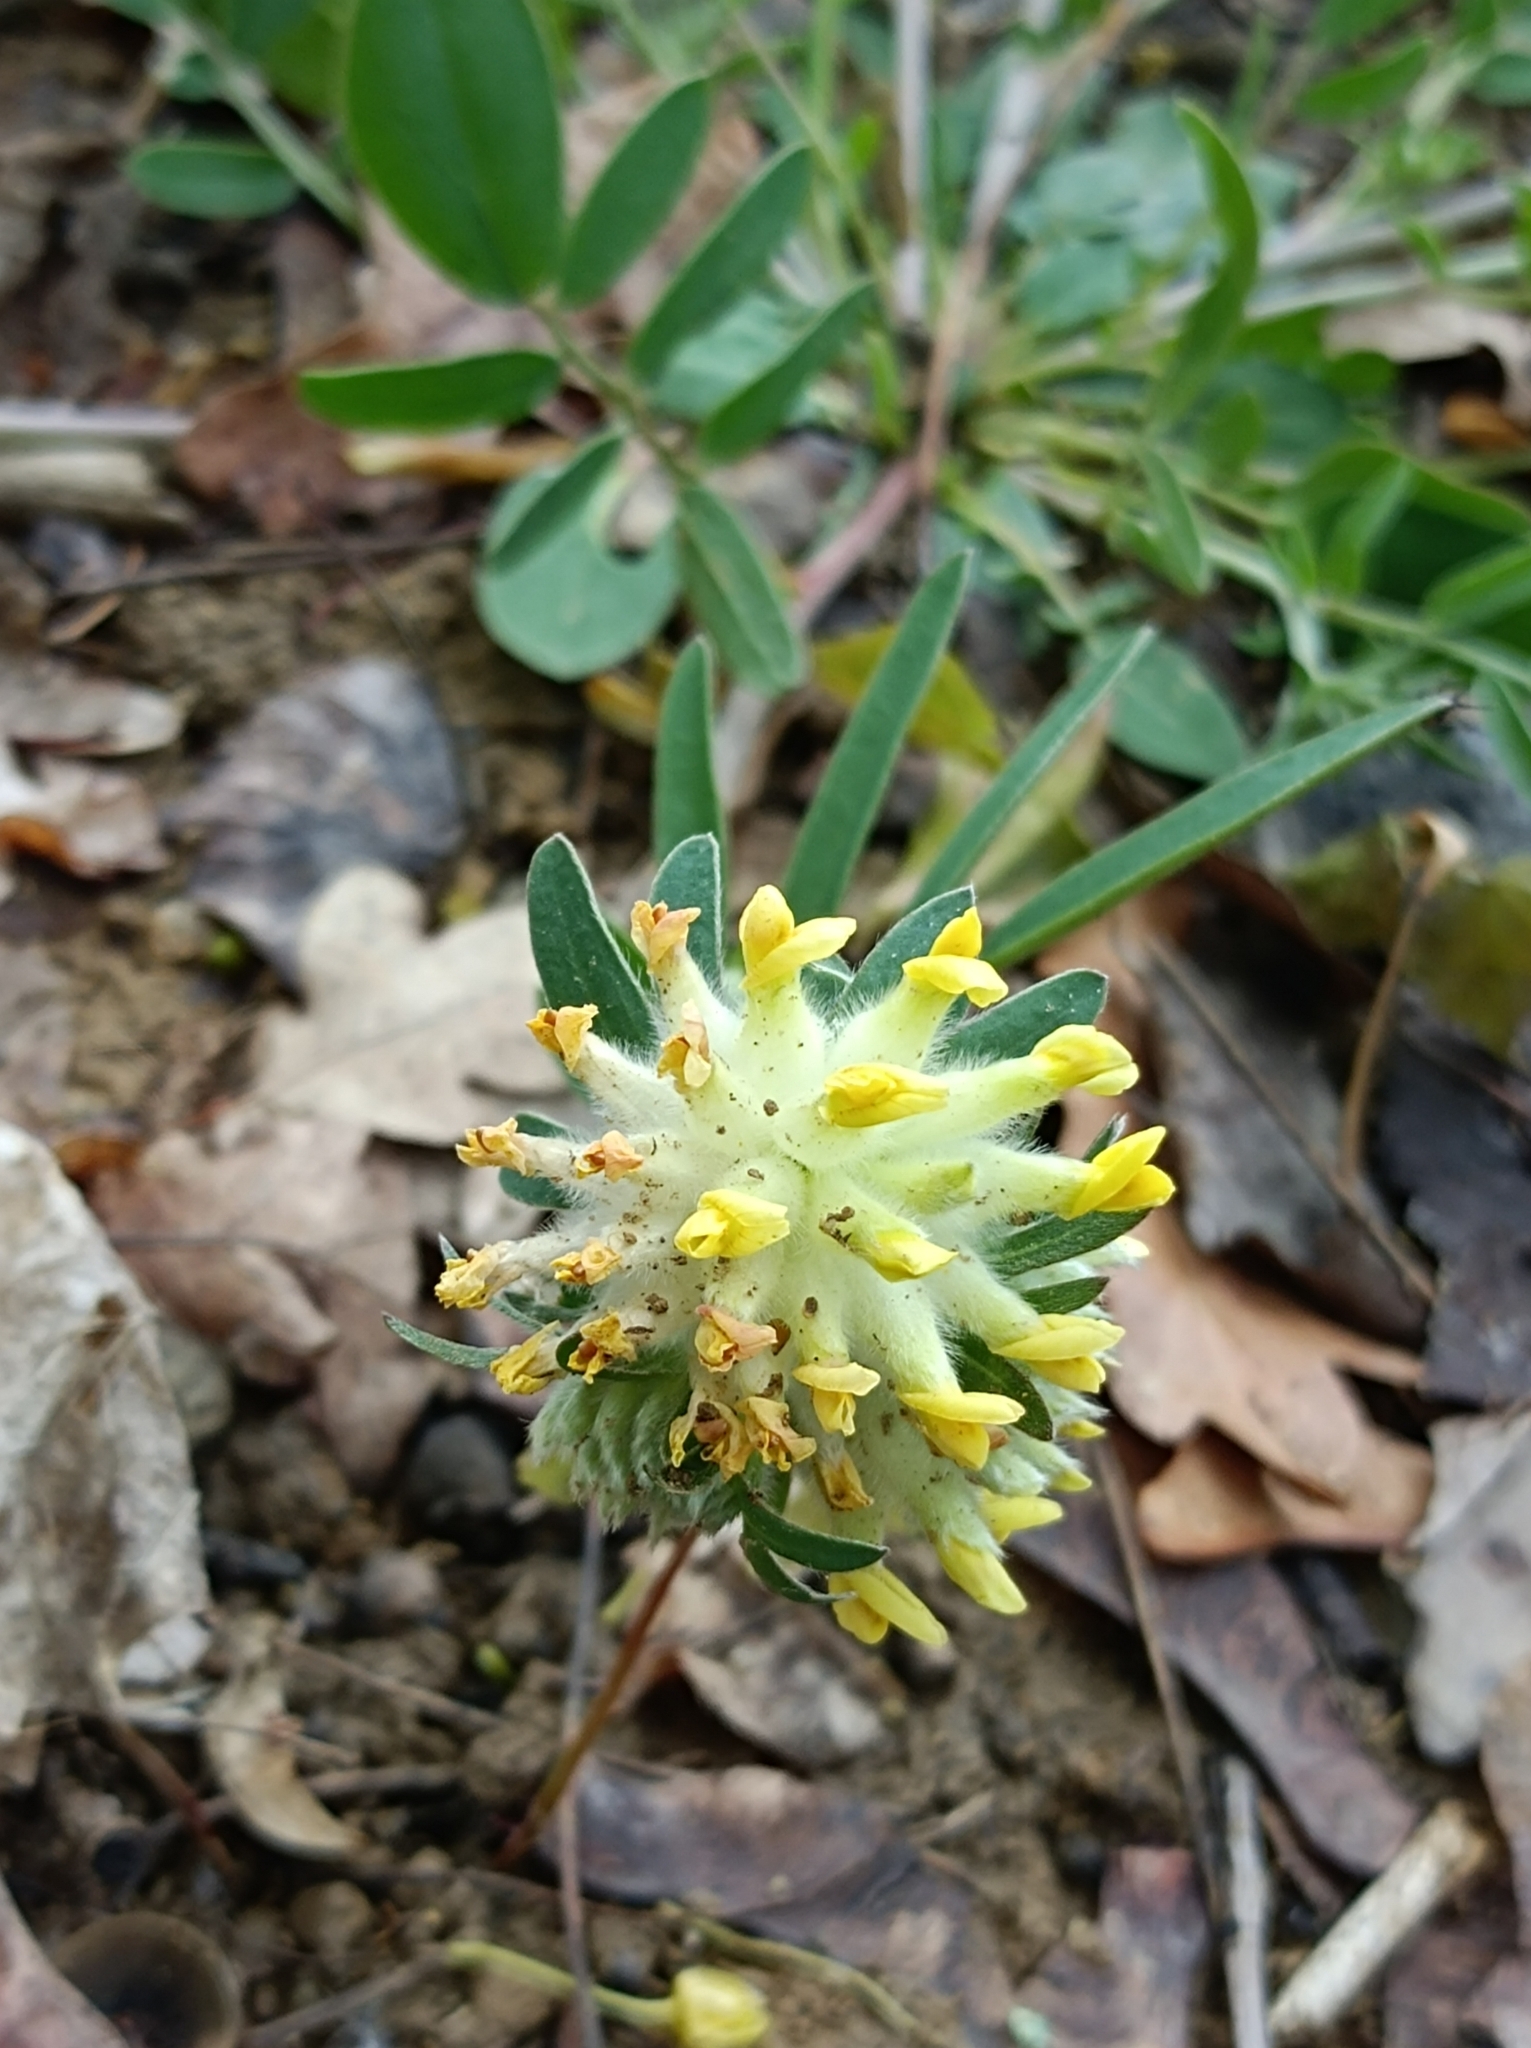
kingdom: Plantae
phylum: Tracheophyta
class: Magnoliopsida
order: Fabales
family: Fabaceae
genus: Anthyllis
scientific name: Anthyllis vulneraria
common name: Kidney vetch
